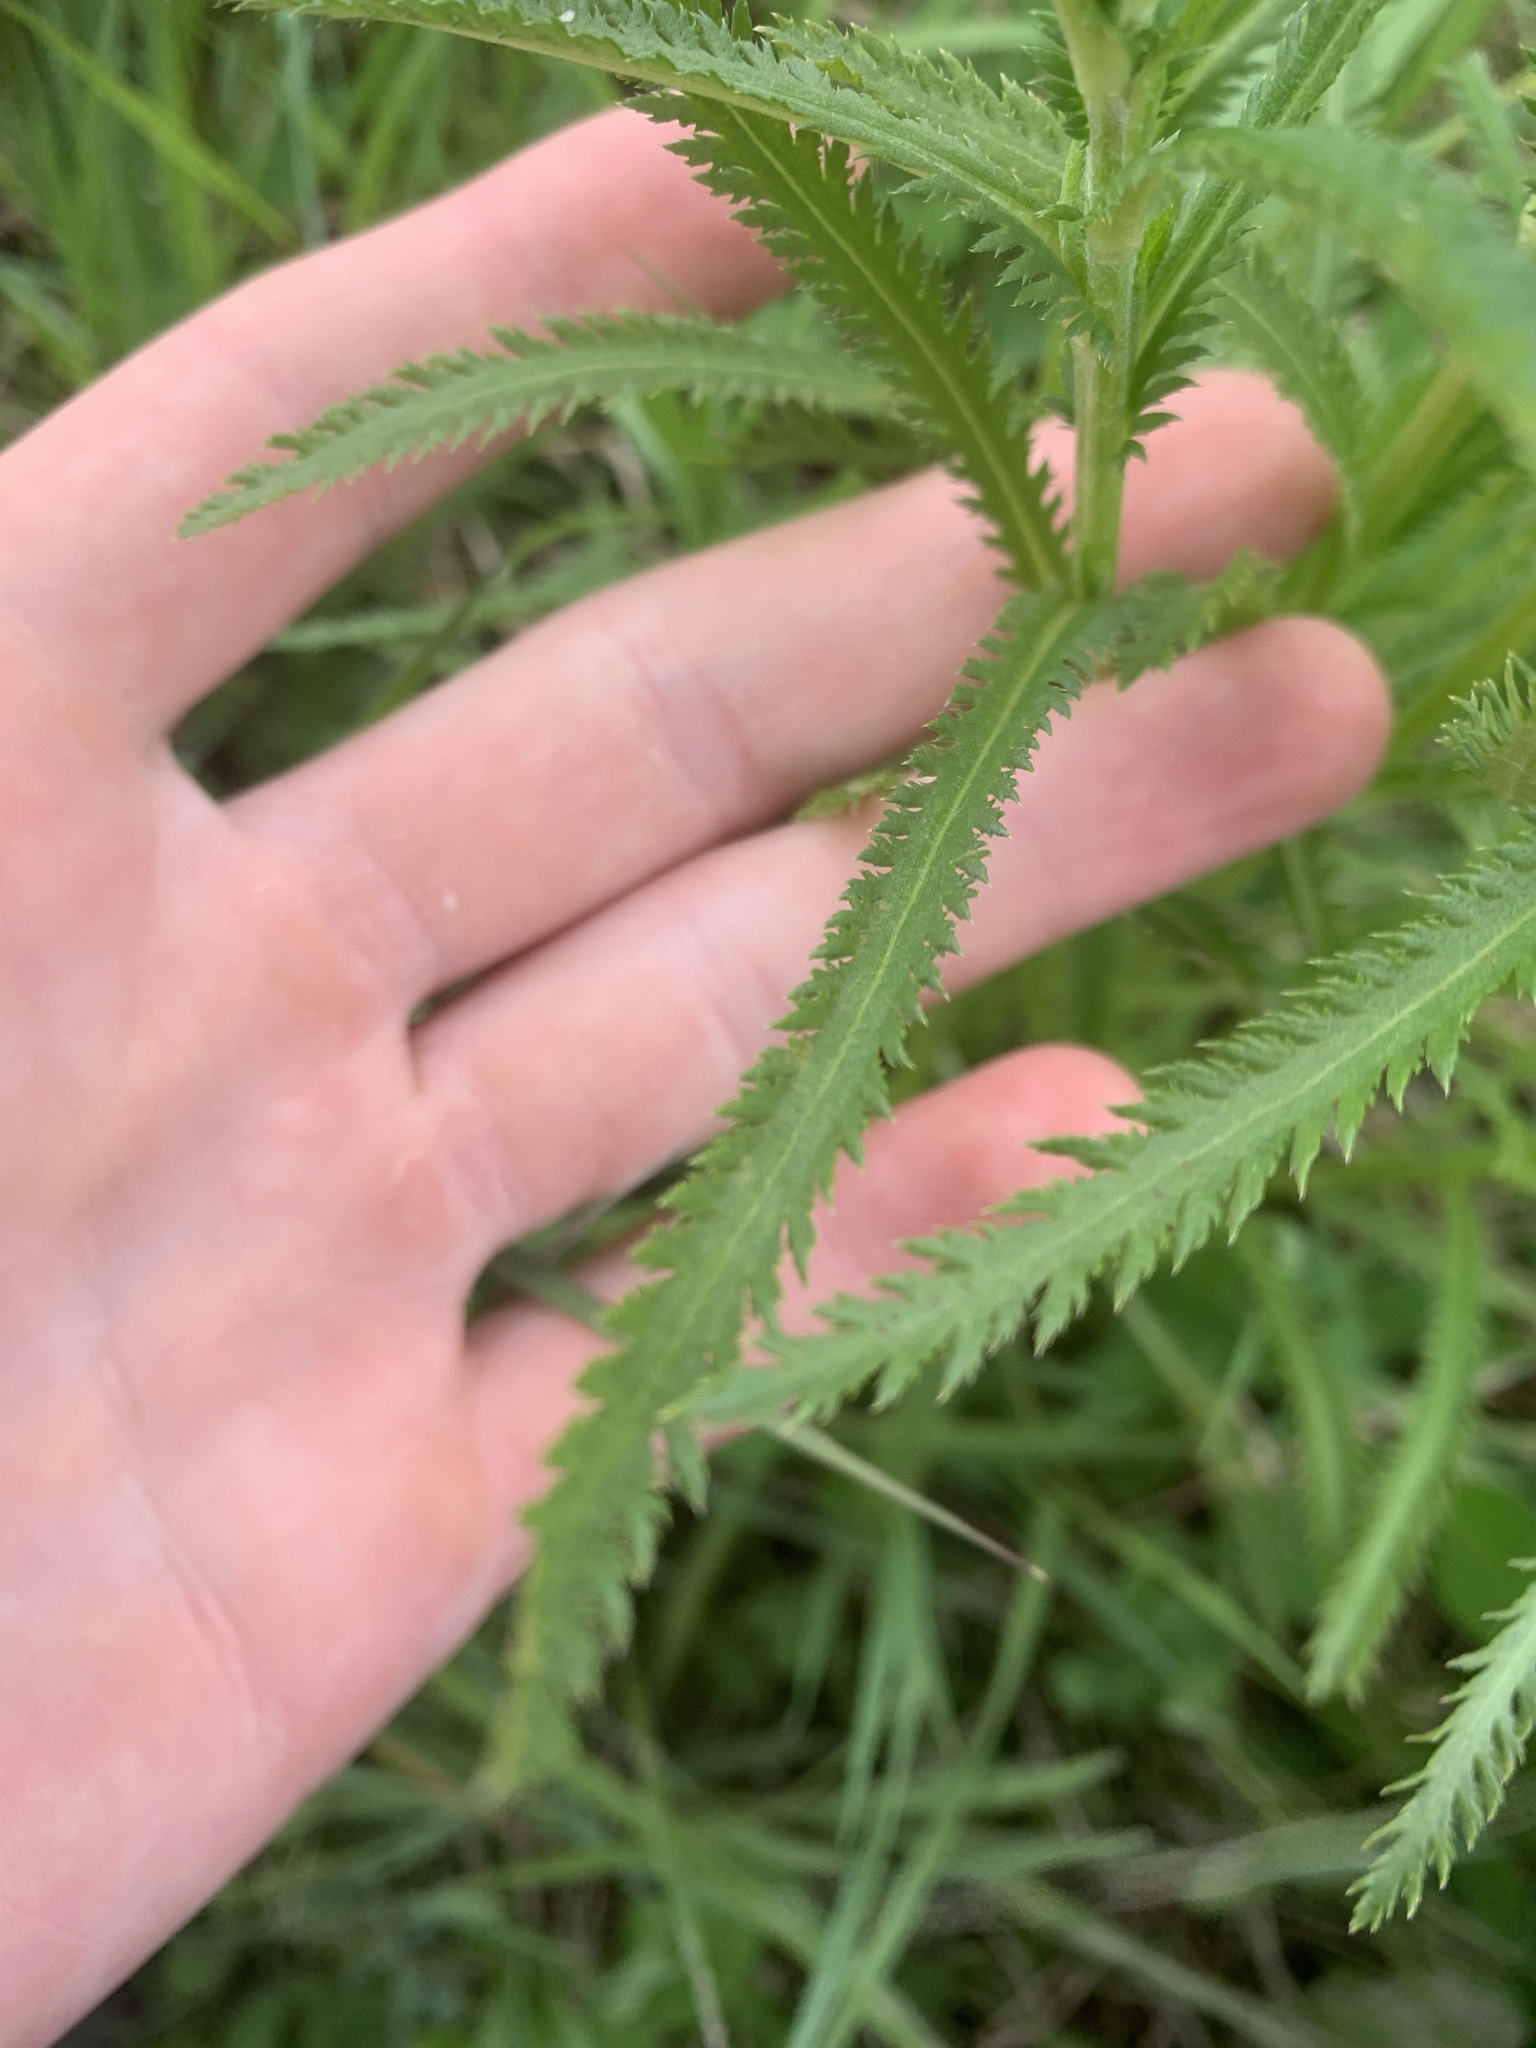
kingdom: Plantae
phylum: Tracheophyta
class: Magnoliopsida
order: Asterales
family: Asteraceae
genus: Achillea
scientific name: Achillea alpina
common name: Siberian yarrow
